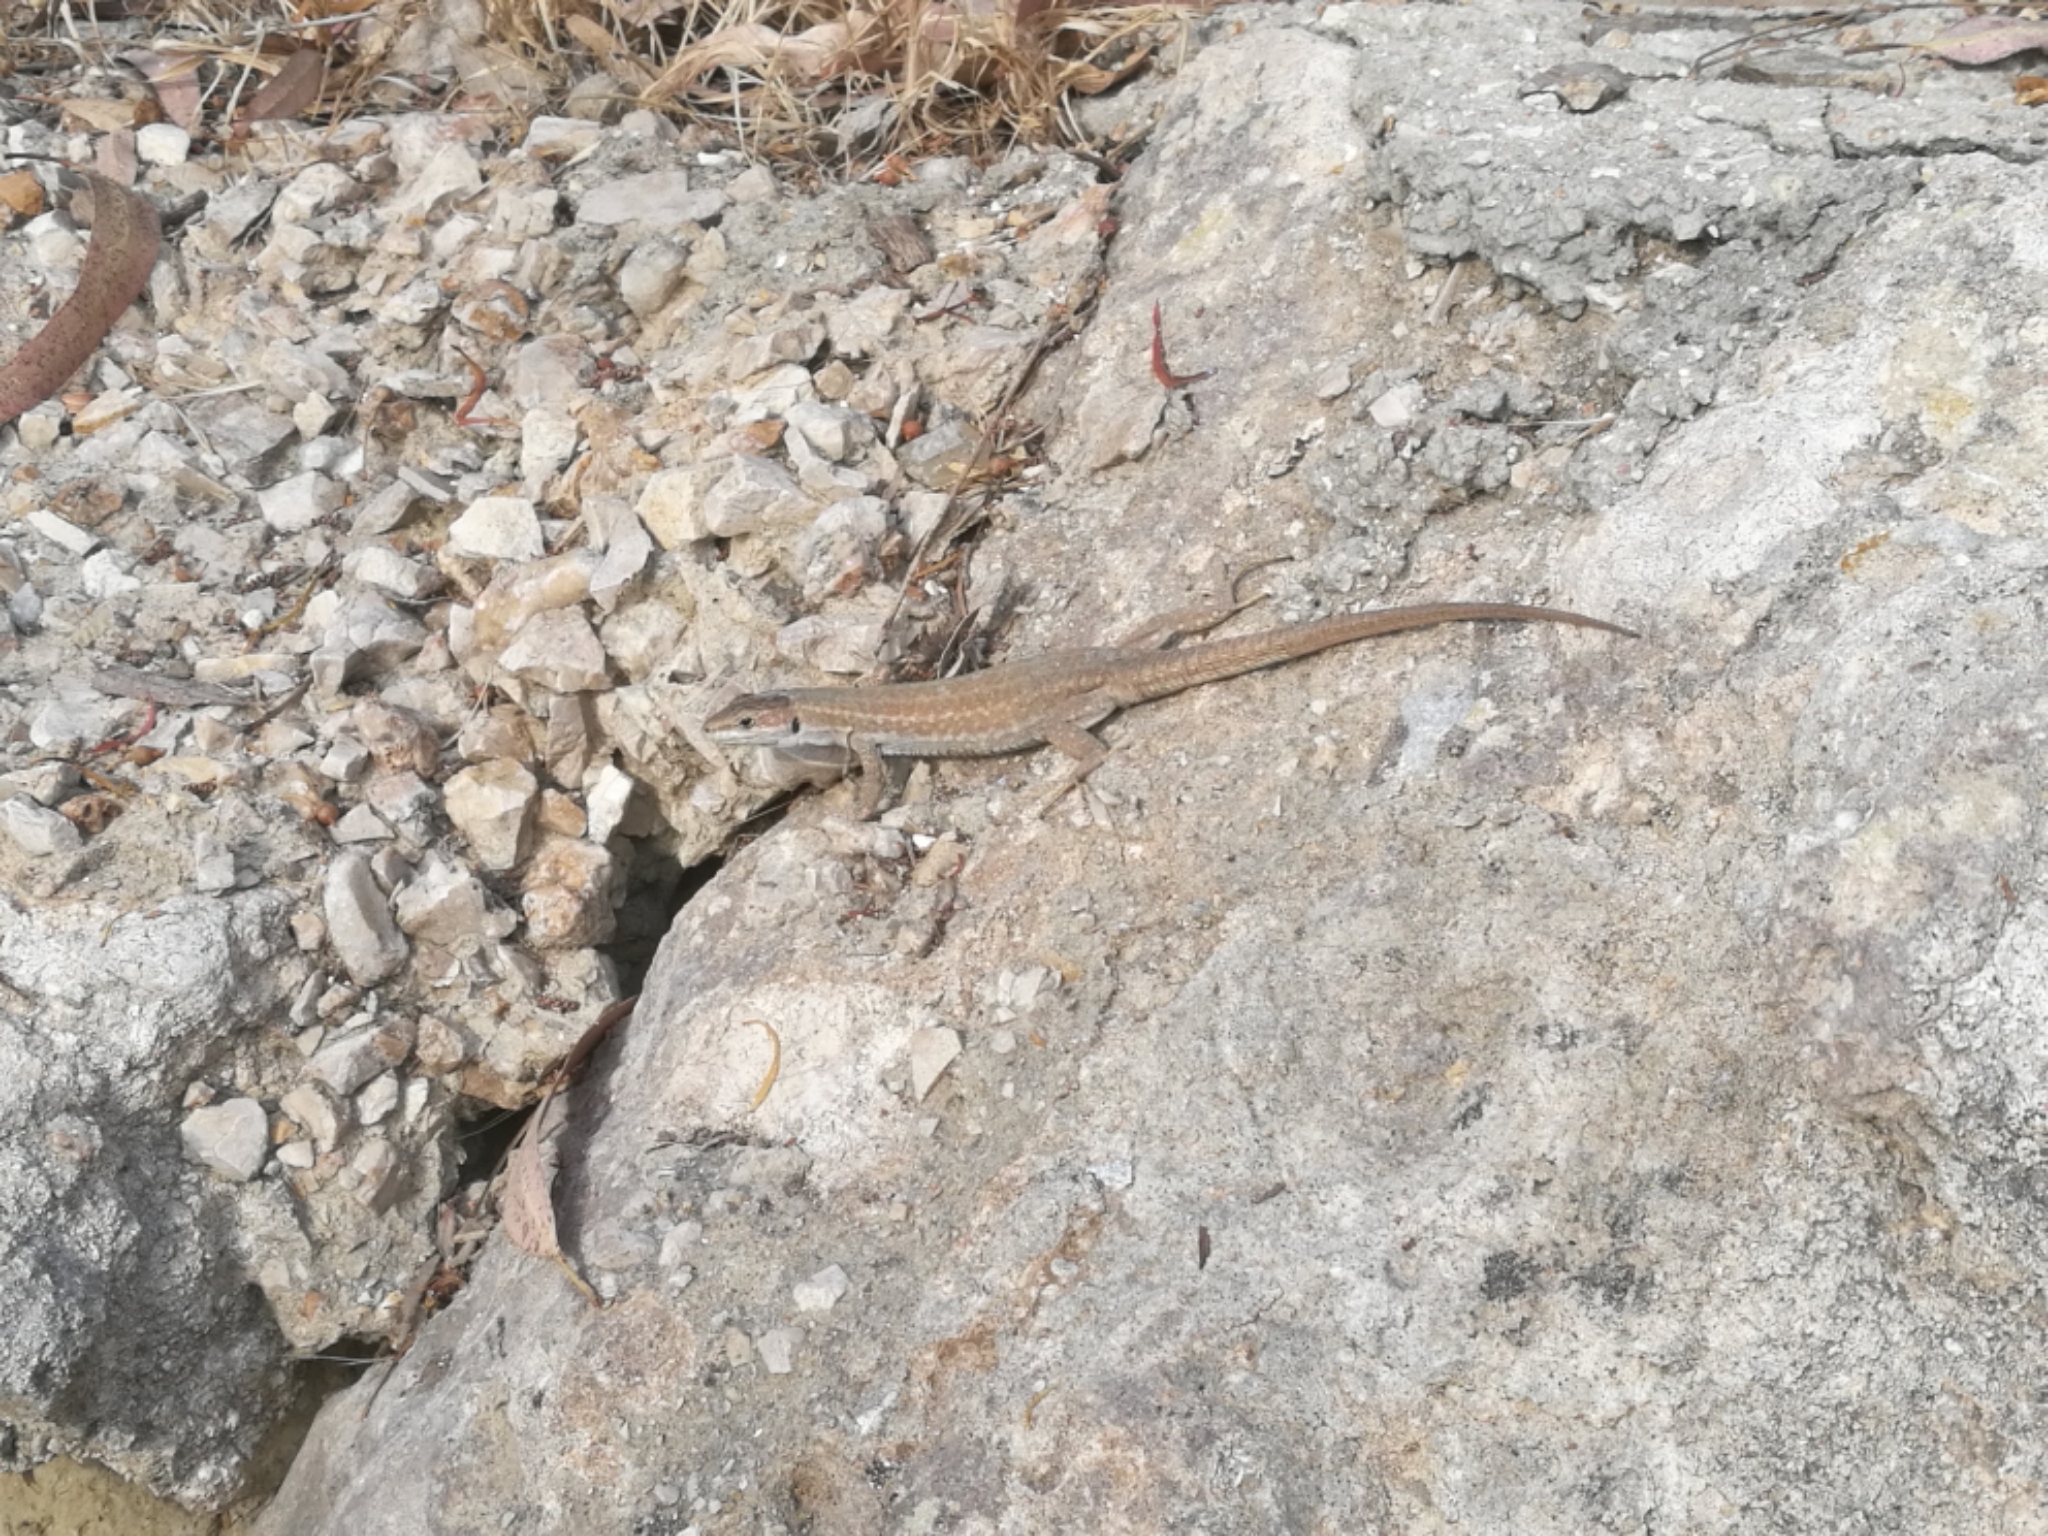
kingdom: Animalia
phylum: Chordata
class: Squamata
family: Lacertidae
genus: Podarcis
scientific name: Podarcis siculus
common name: Italian wall lizard
